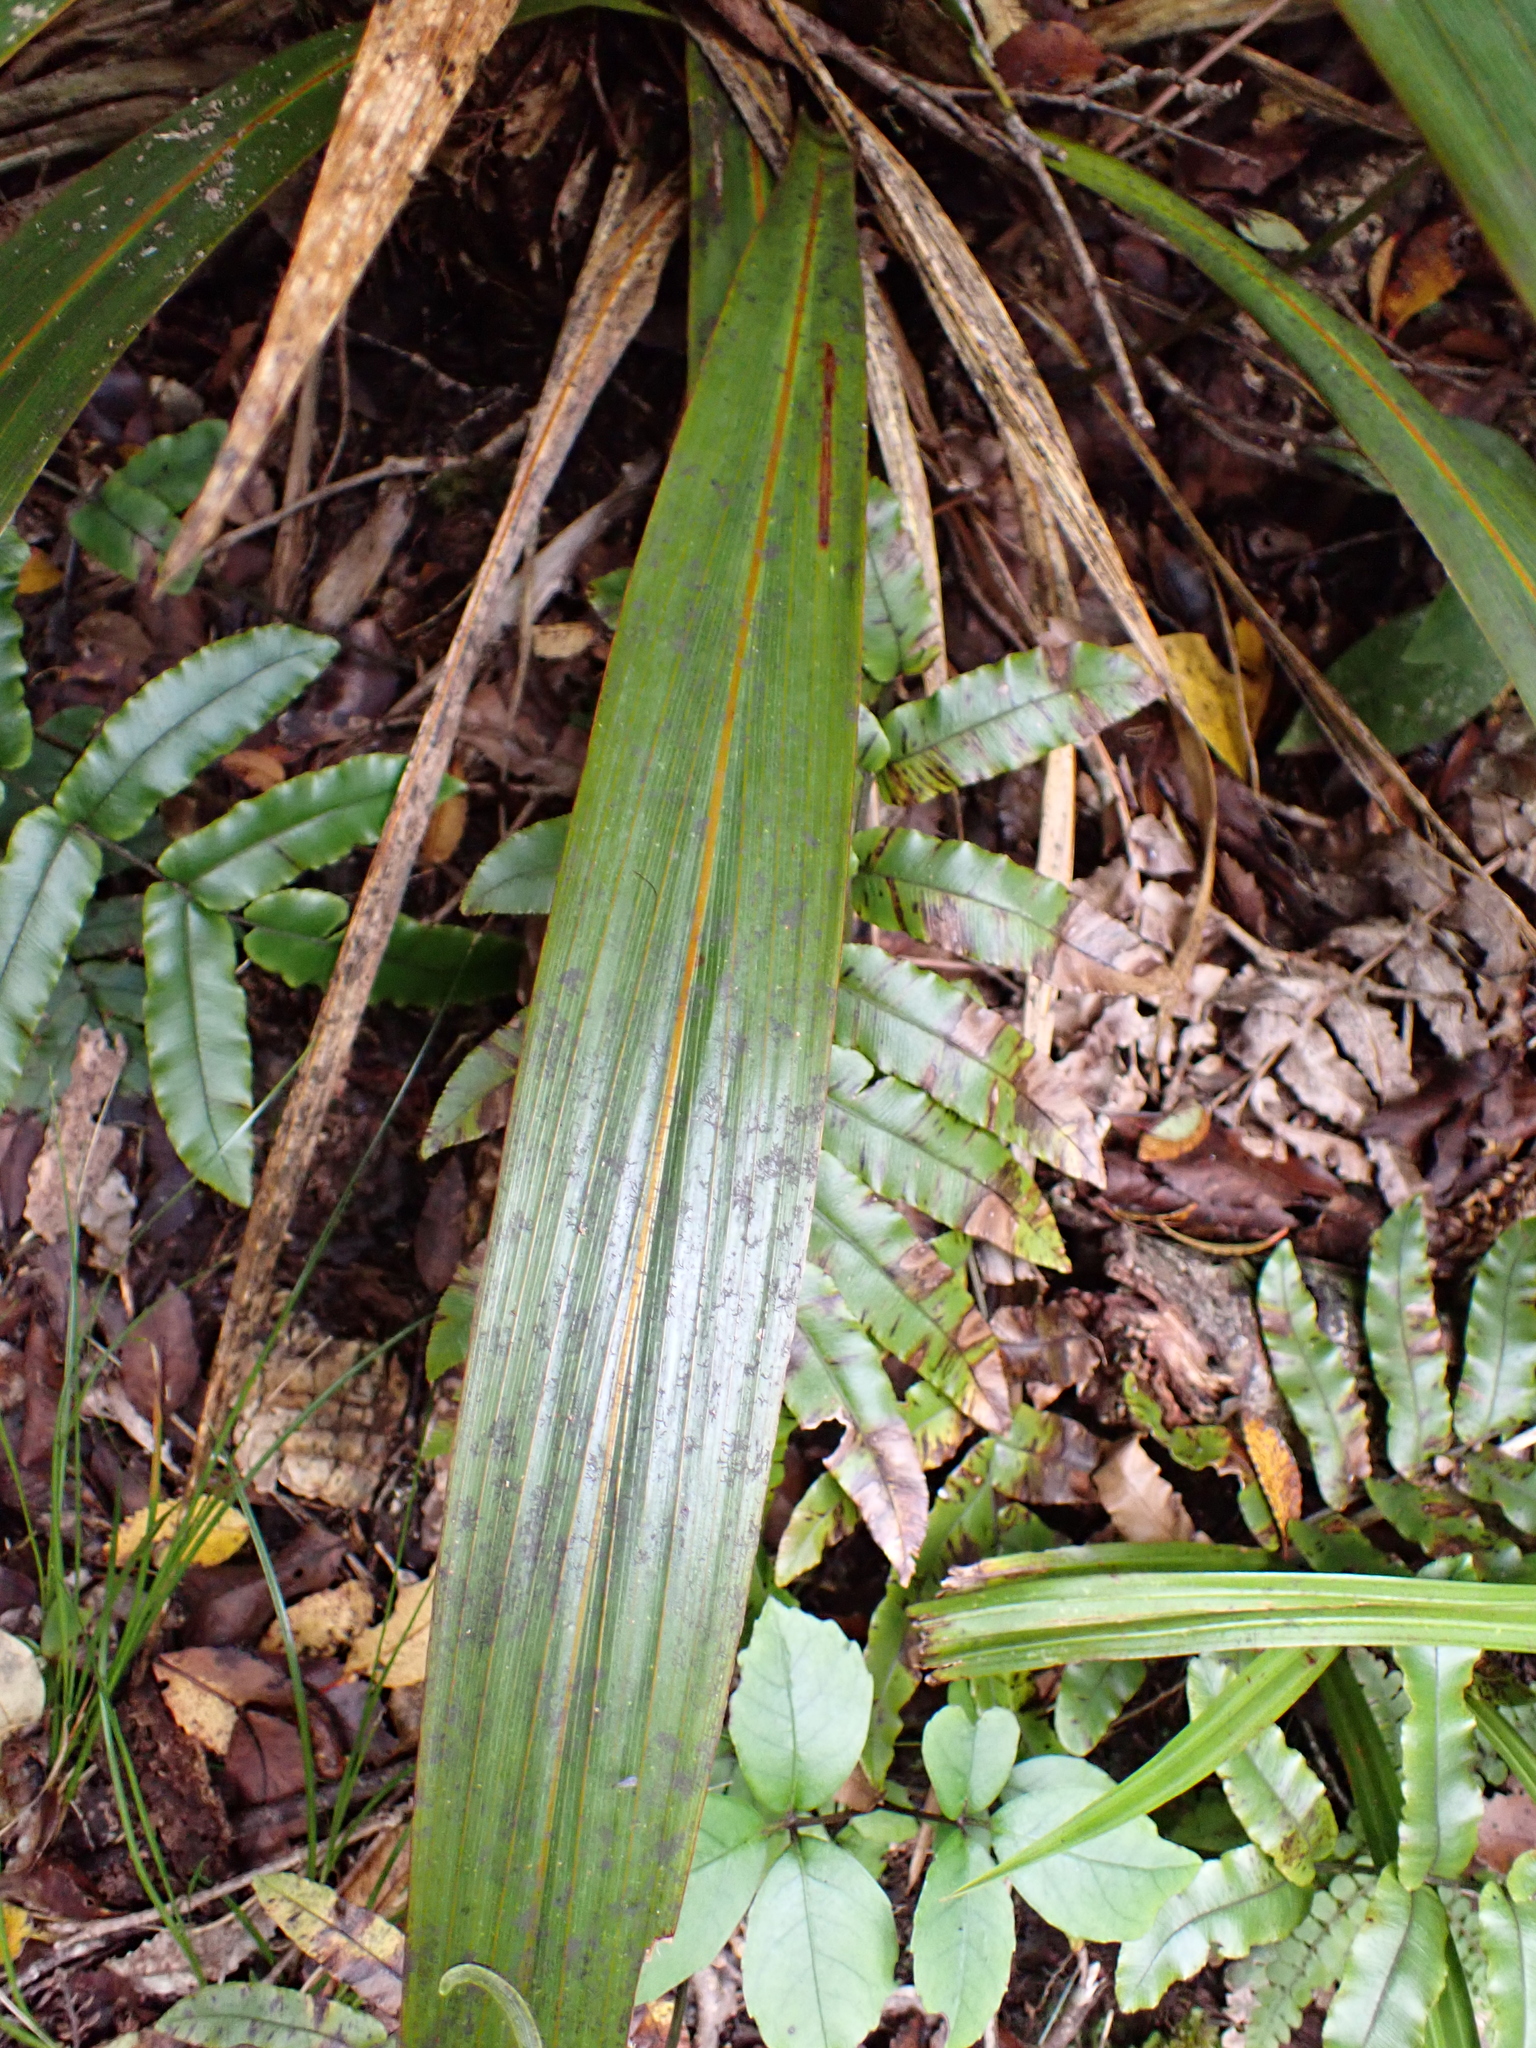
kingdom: Plantae
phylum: Tracheophyta
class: Liliopsida
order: Asparagales
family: Asparagaceae
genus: Cordyline
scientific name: Cordyline indivisa
